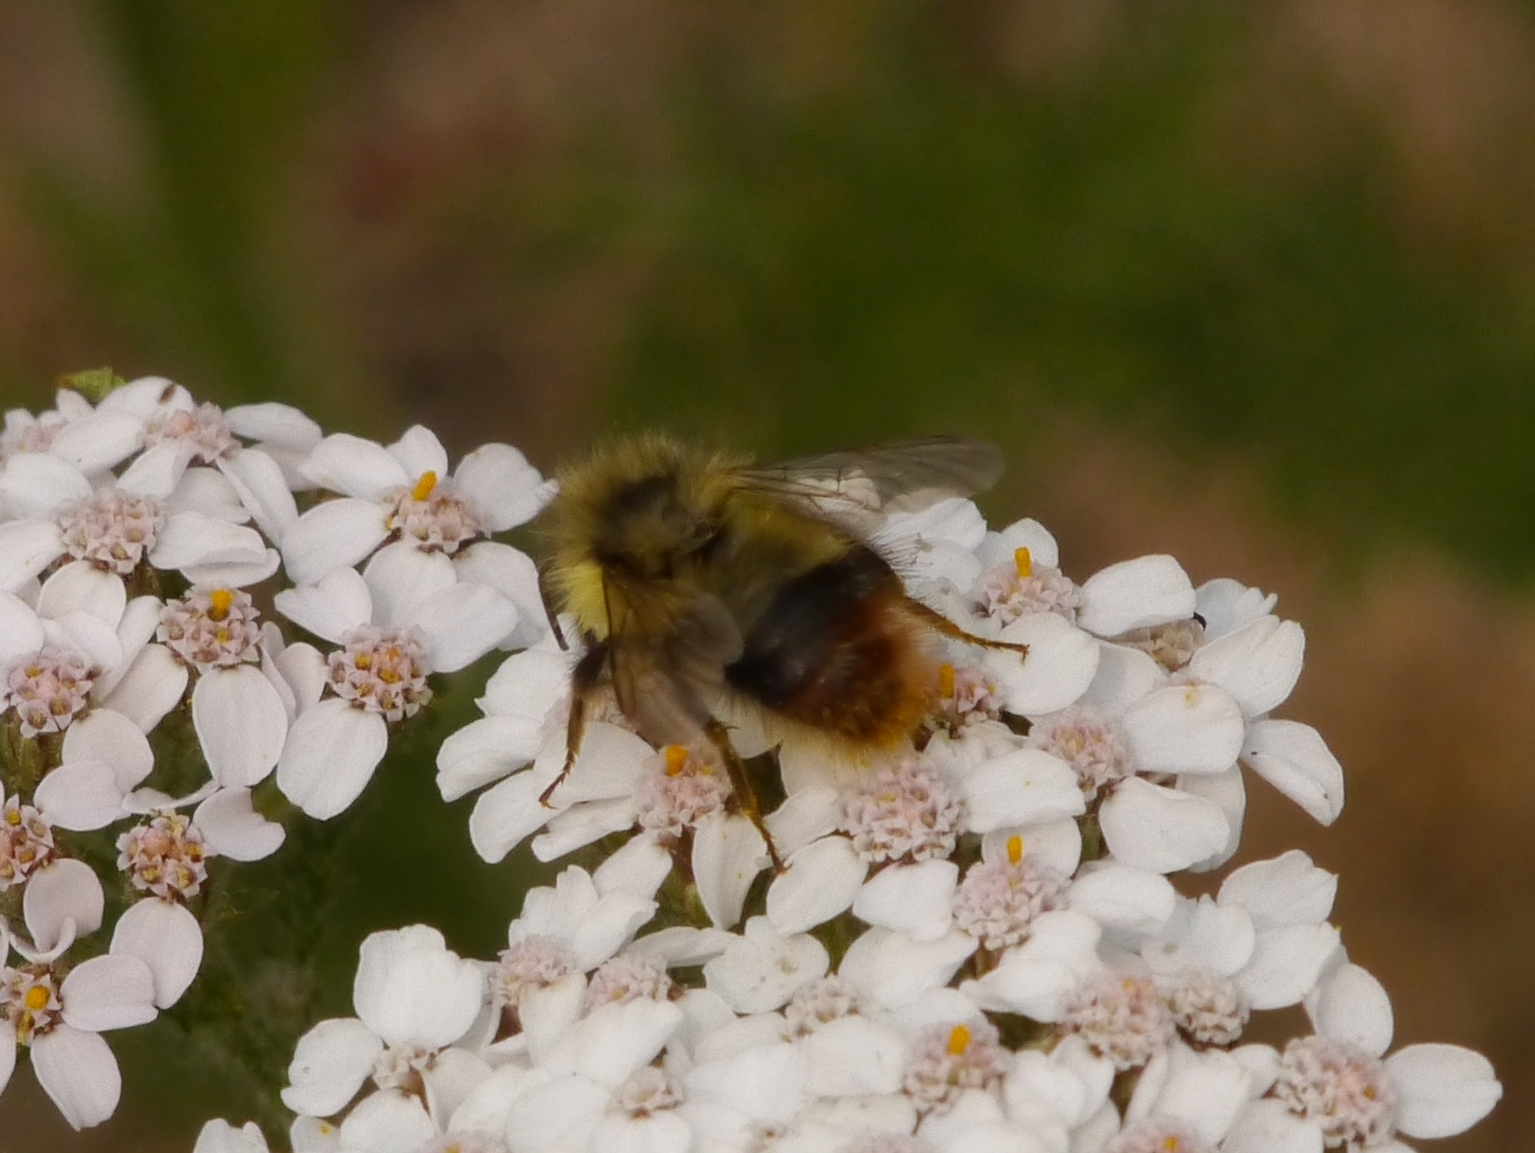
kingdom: Animalia
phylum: Arthropoda
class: Insecta
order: Hymenoptera
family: Apidae
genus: Bombus
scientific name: Bombus mixtus
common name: Fuzzy-horned bumble bee
